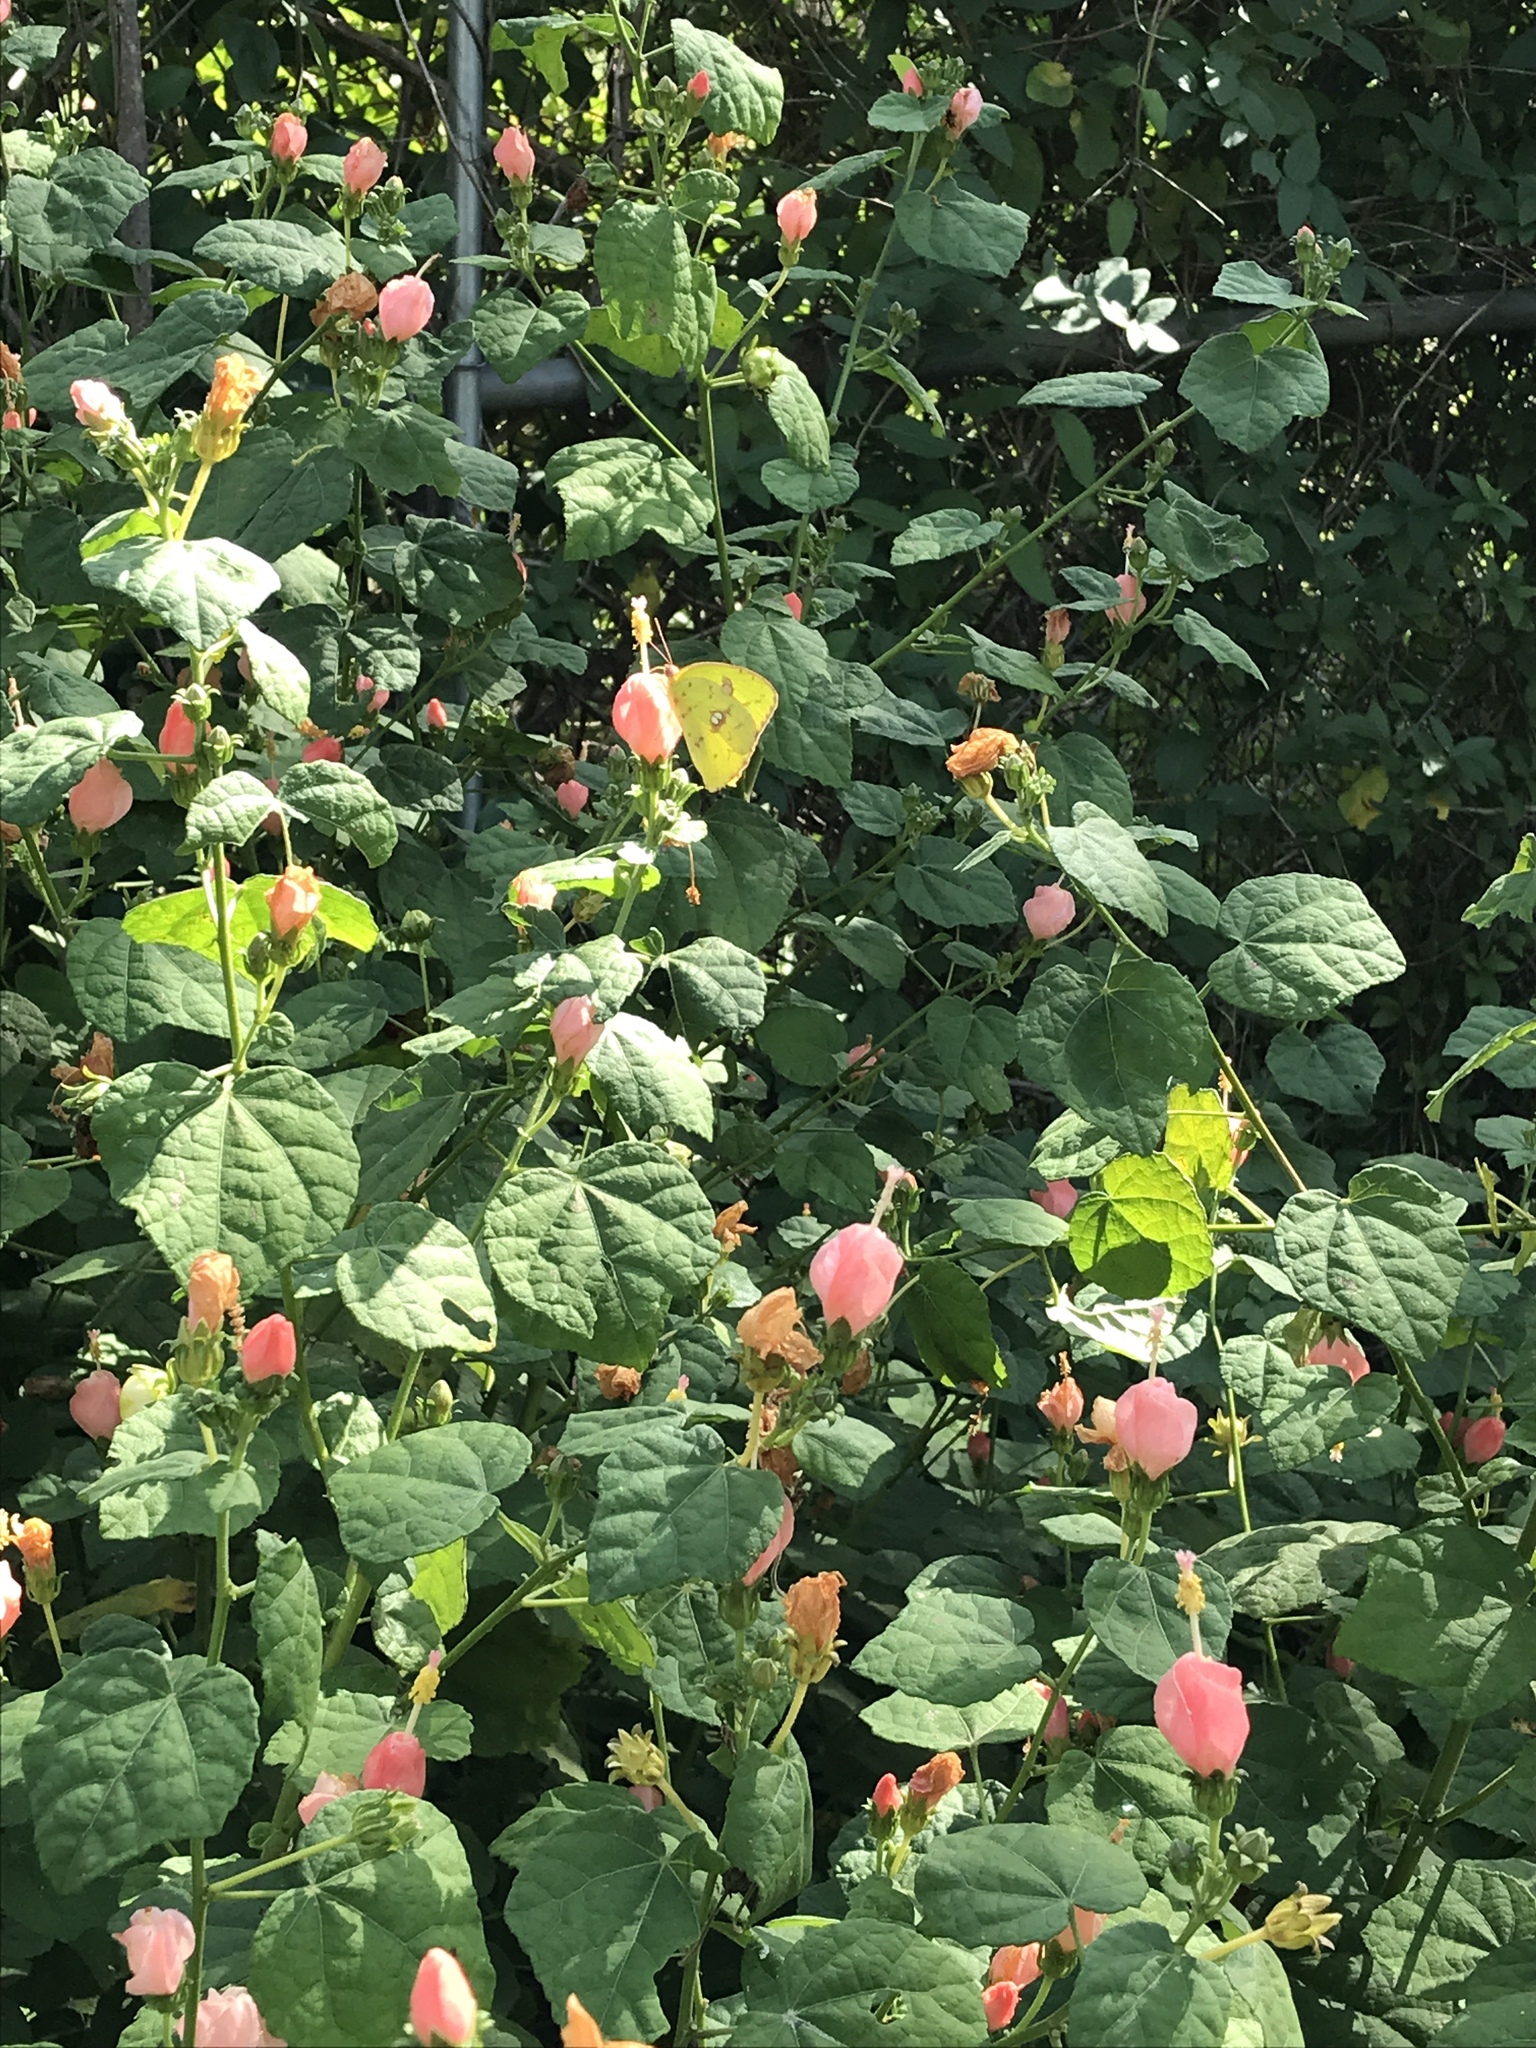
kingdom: Animalia
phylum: Arthropoda
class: Insecta
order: Lepidoptera
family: Pieridae
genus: Phoebis
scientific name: Phoebis sennae
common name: Cloudless sulphur
